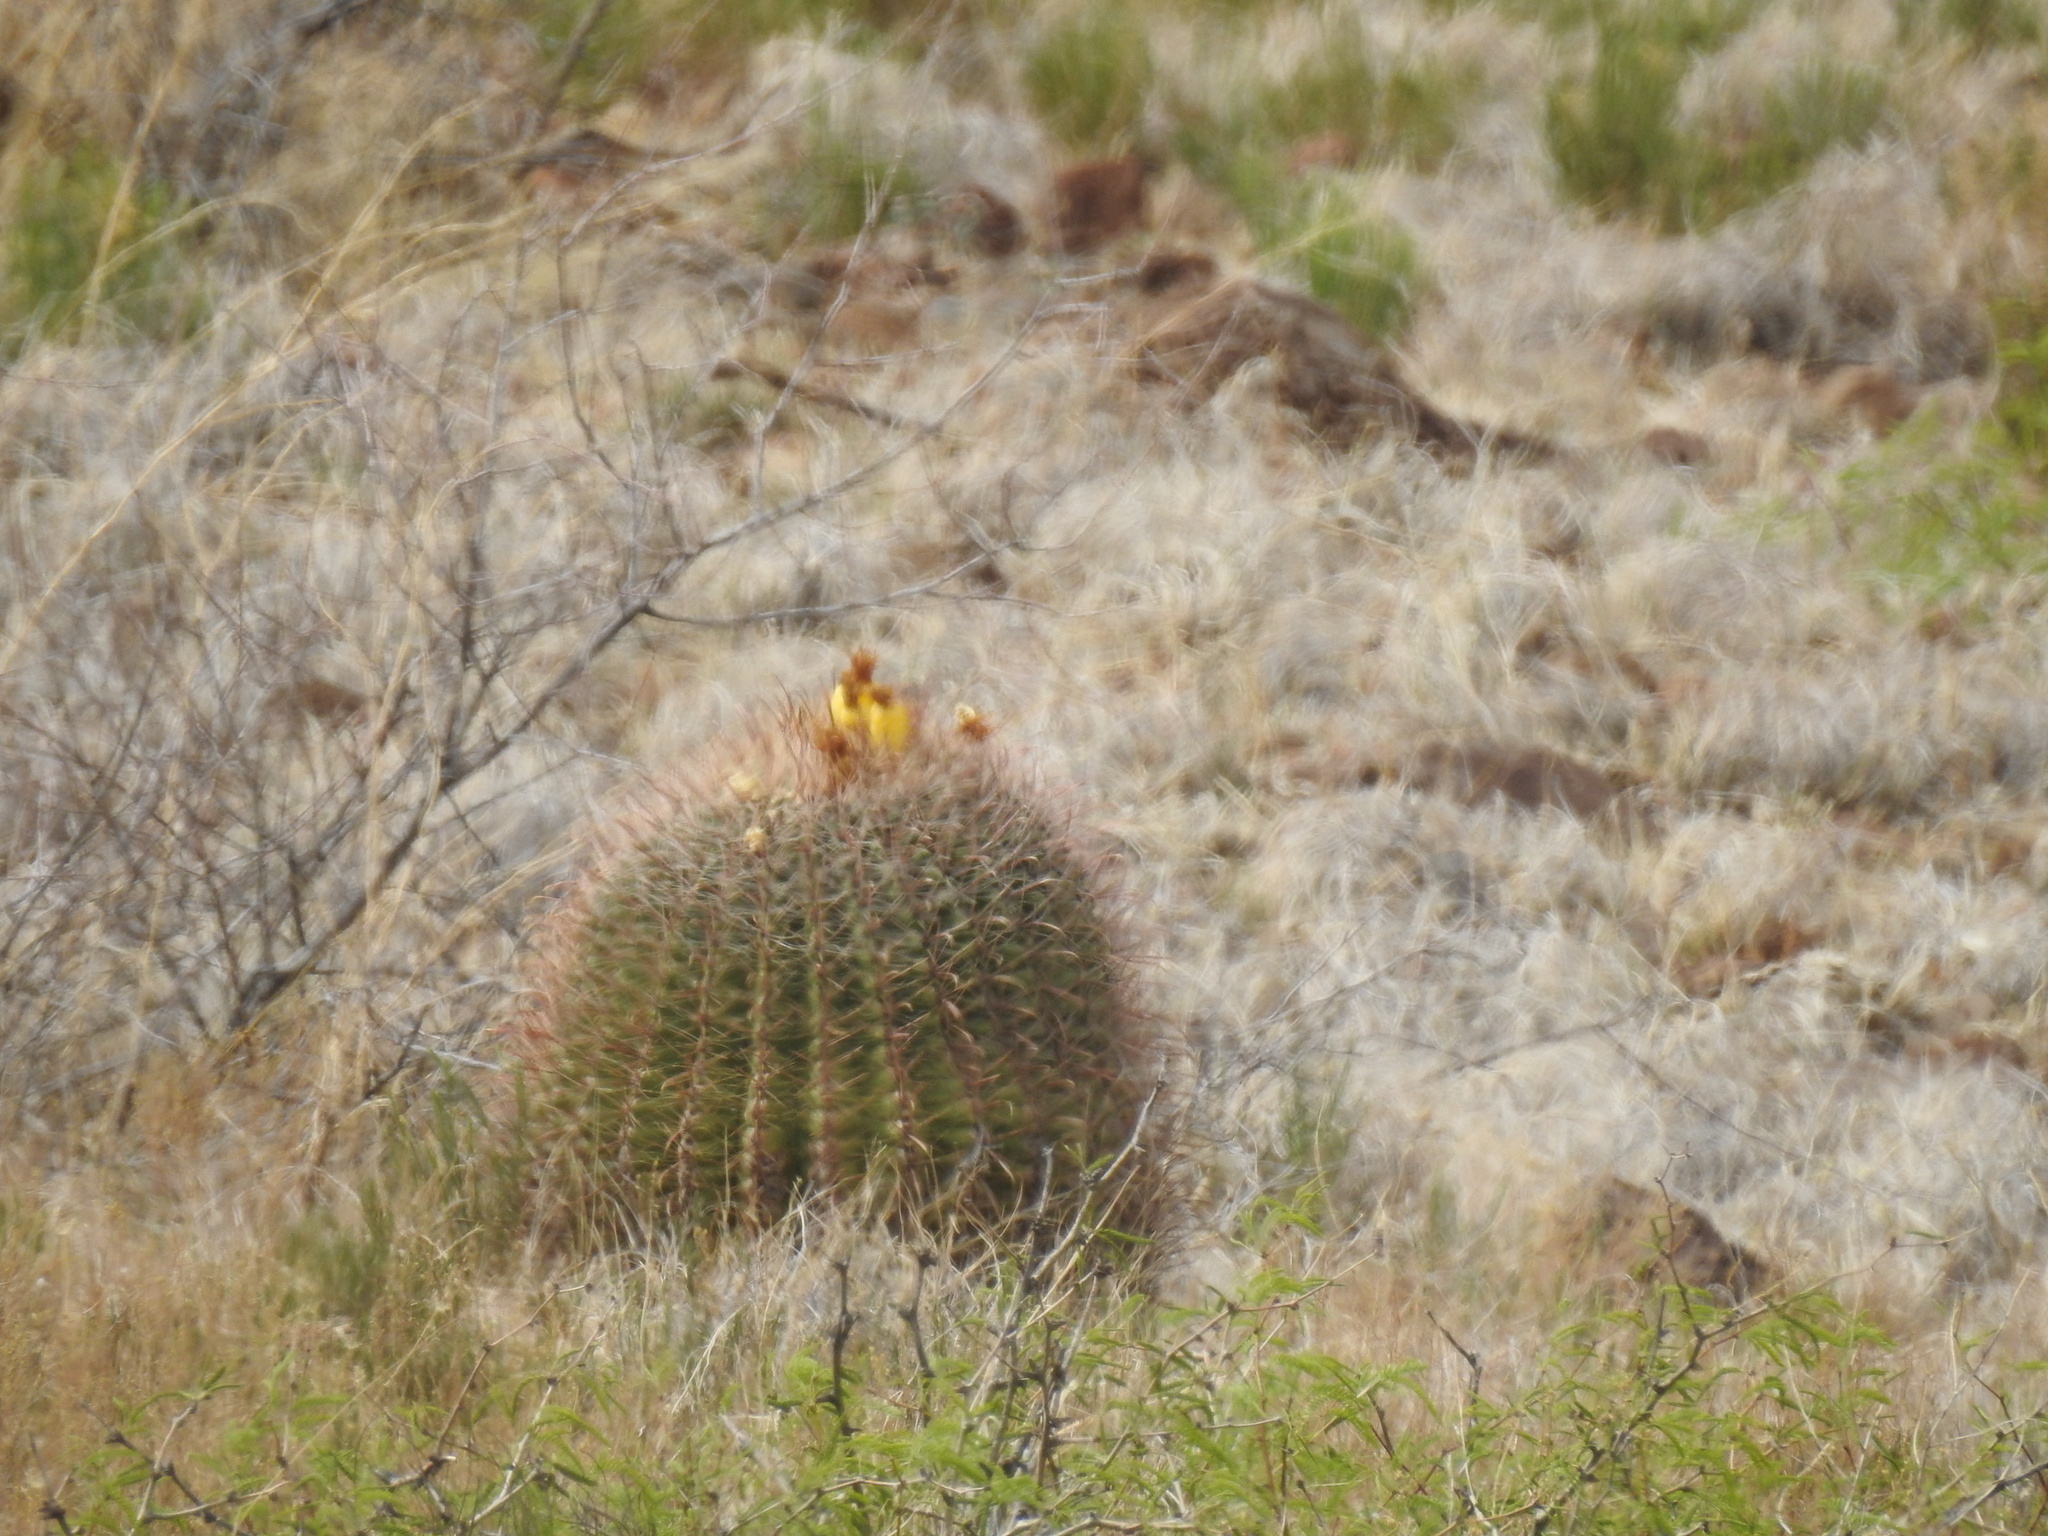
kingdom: Plantae
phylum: Tracheophyta
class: Magnoliopsida
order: Caryophyllales
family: Cactaceae
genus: Ferocactus
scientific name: Ferocactus wislizeni
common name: Candy barrel cactus
